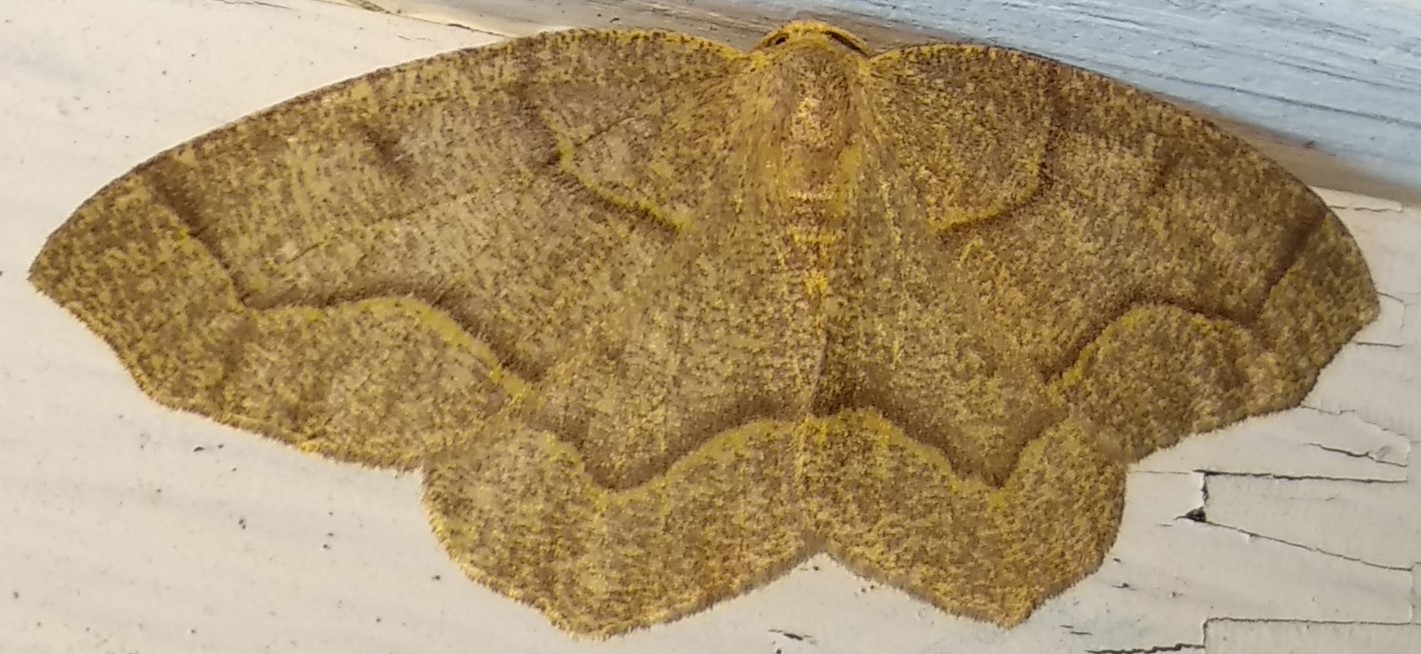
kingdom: Animalia
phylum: Arthropoda
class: Insecta
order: Lepidoptera
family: Geometridae
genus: Lambdina
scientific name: Lambdina fiscellaria
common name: Hemlock looper
